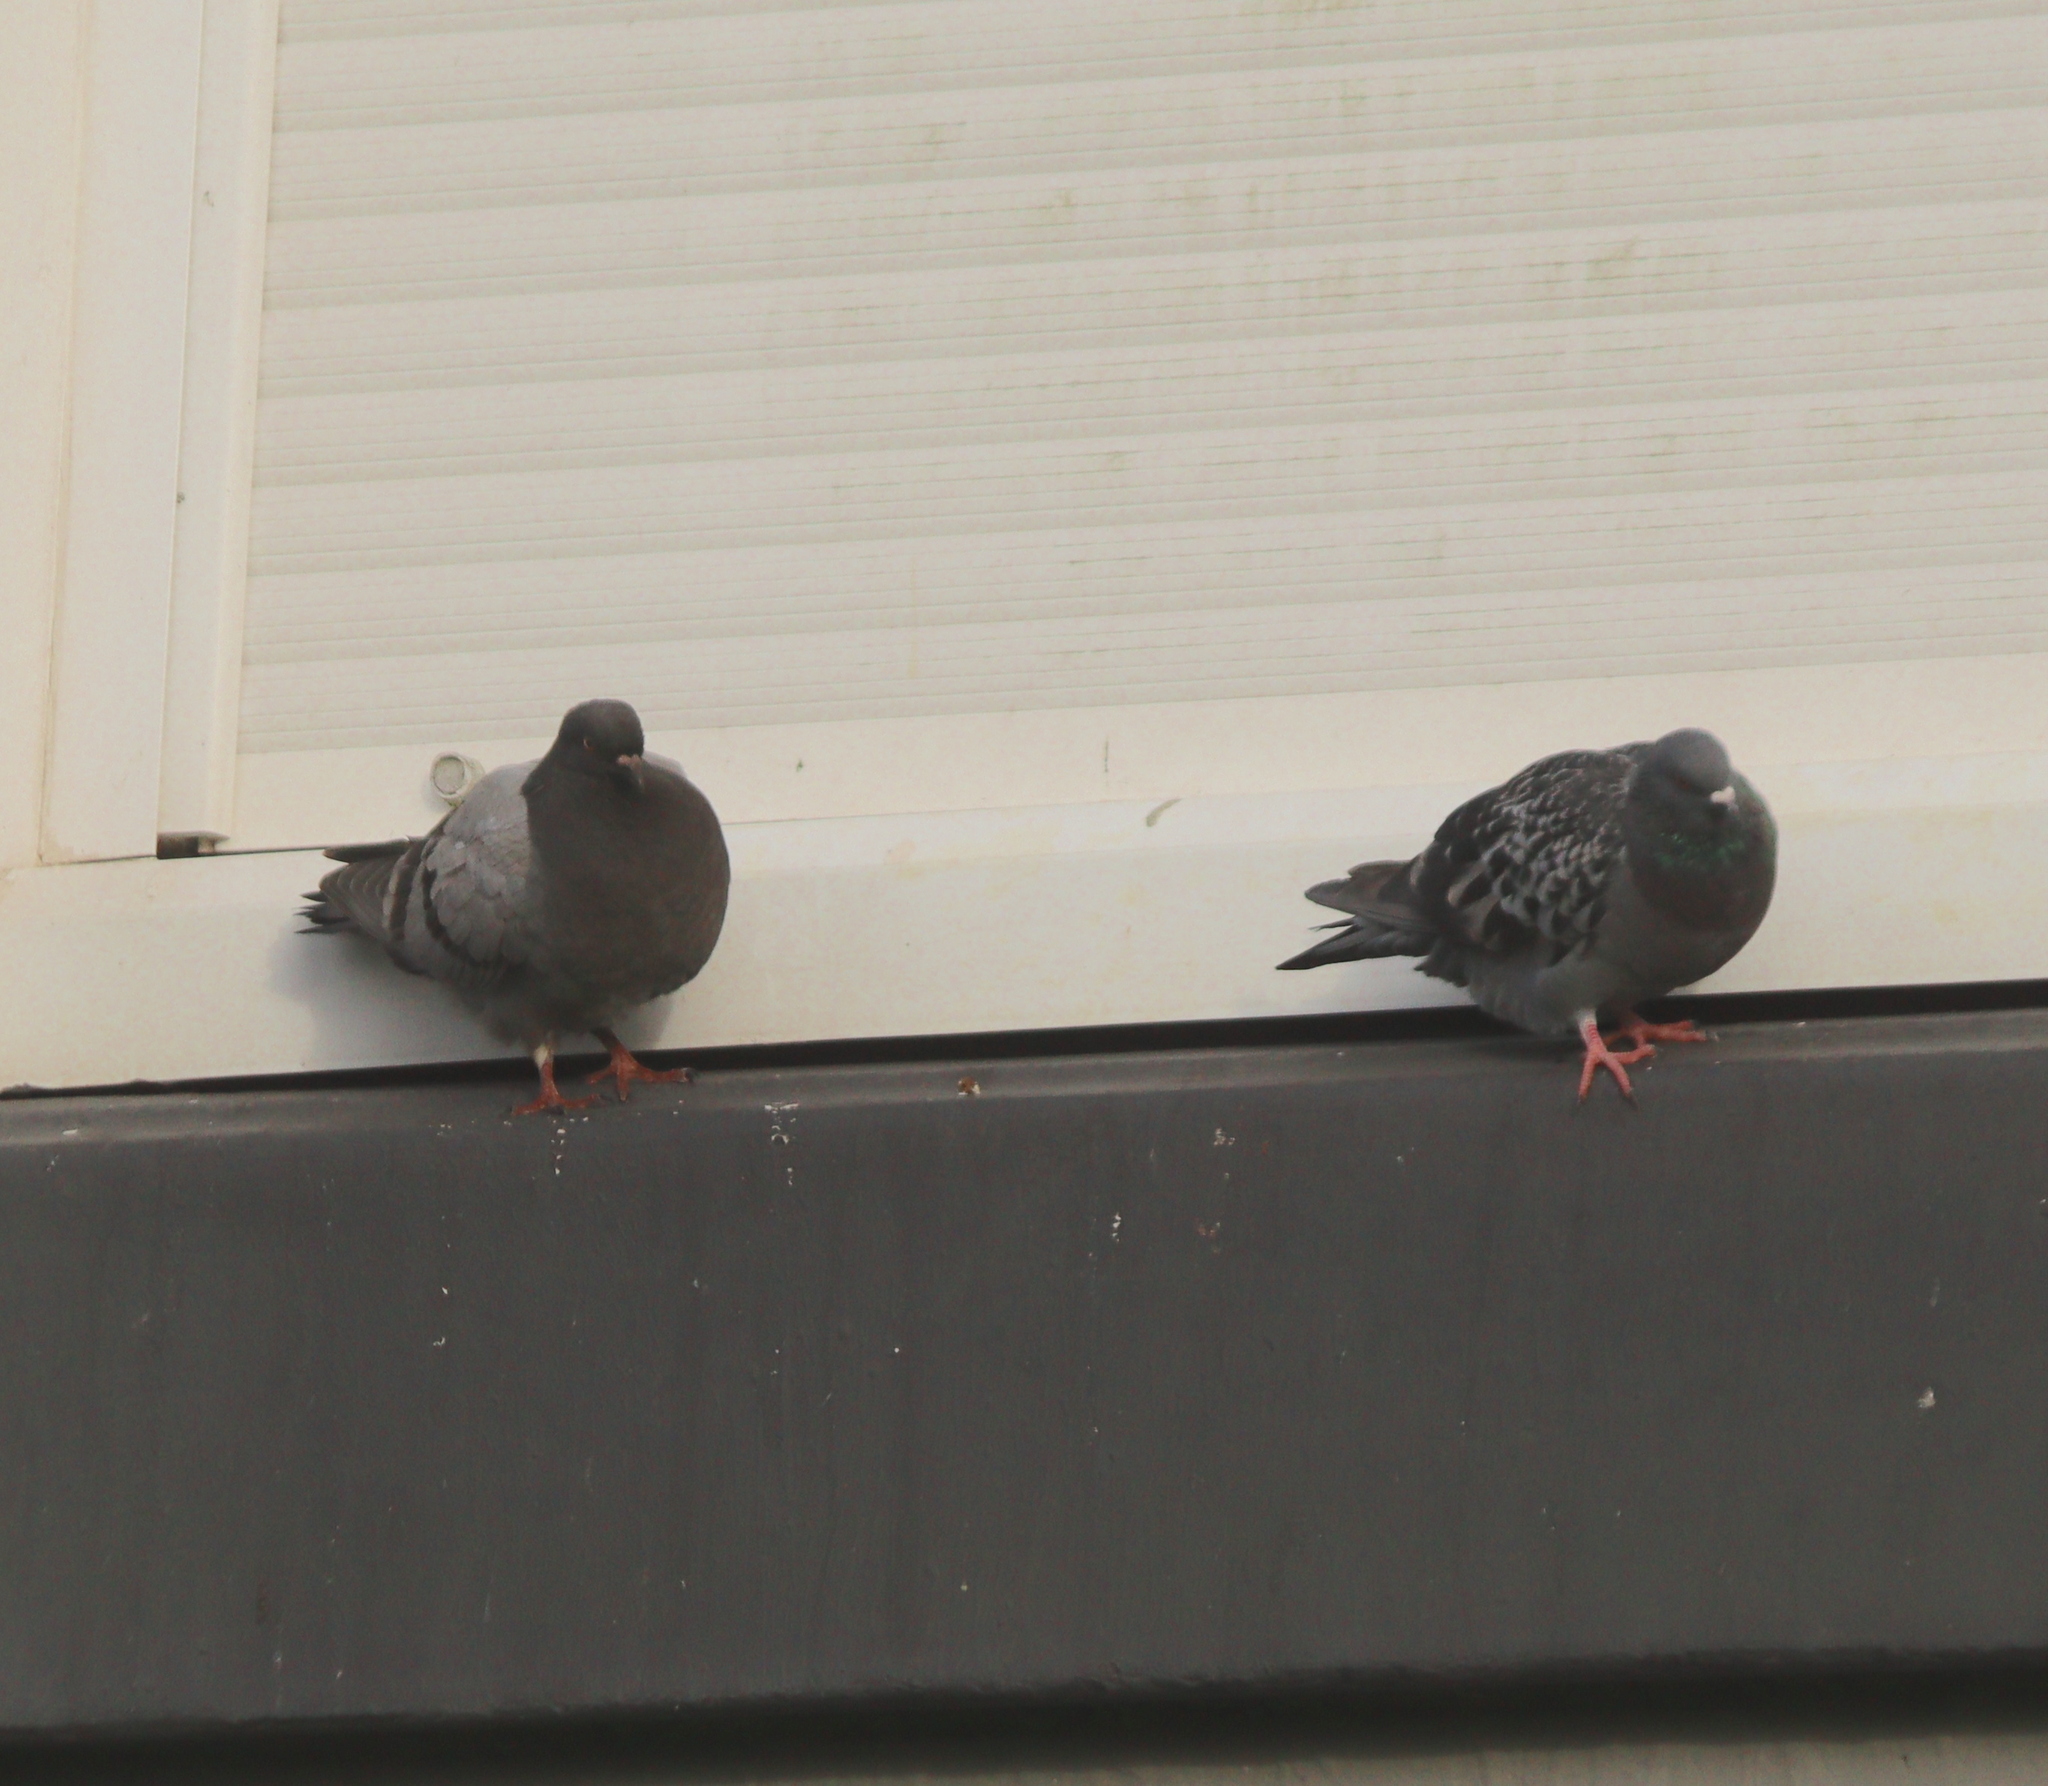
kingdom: Animalia
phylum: Chordata
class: Aves
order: Columbiformes
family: Columbidae
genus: Columba
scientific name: Columba livia
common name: Rock pigeon
